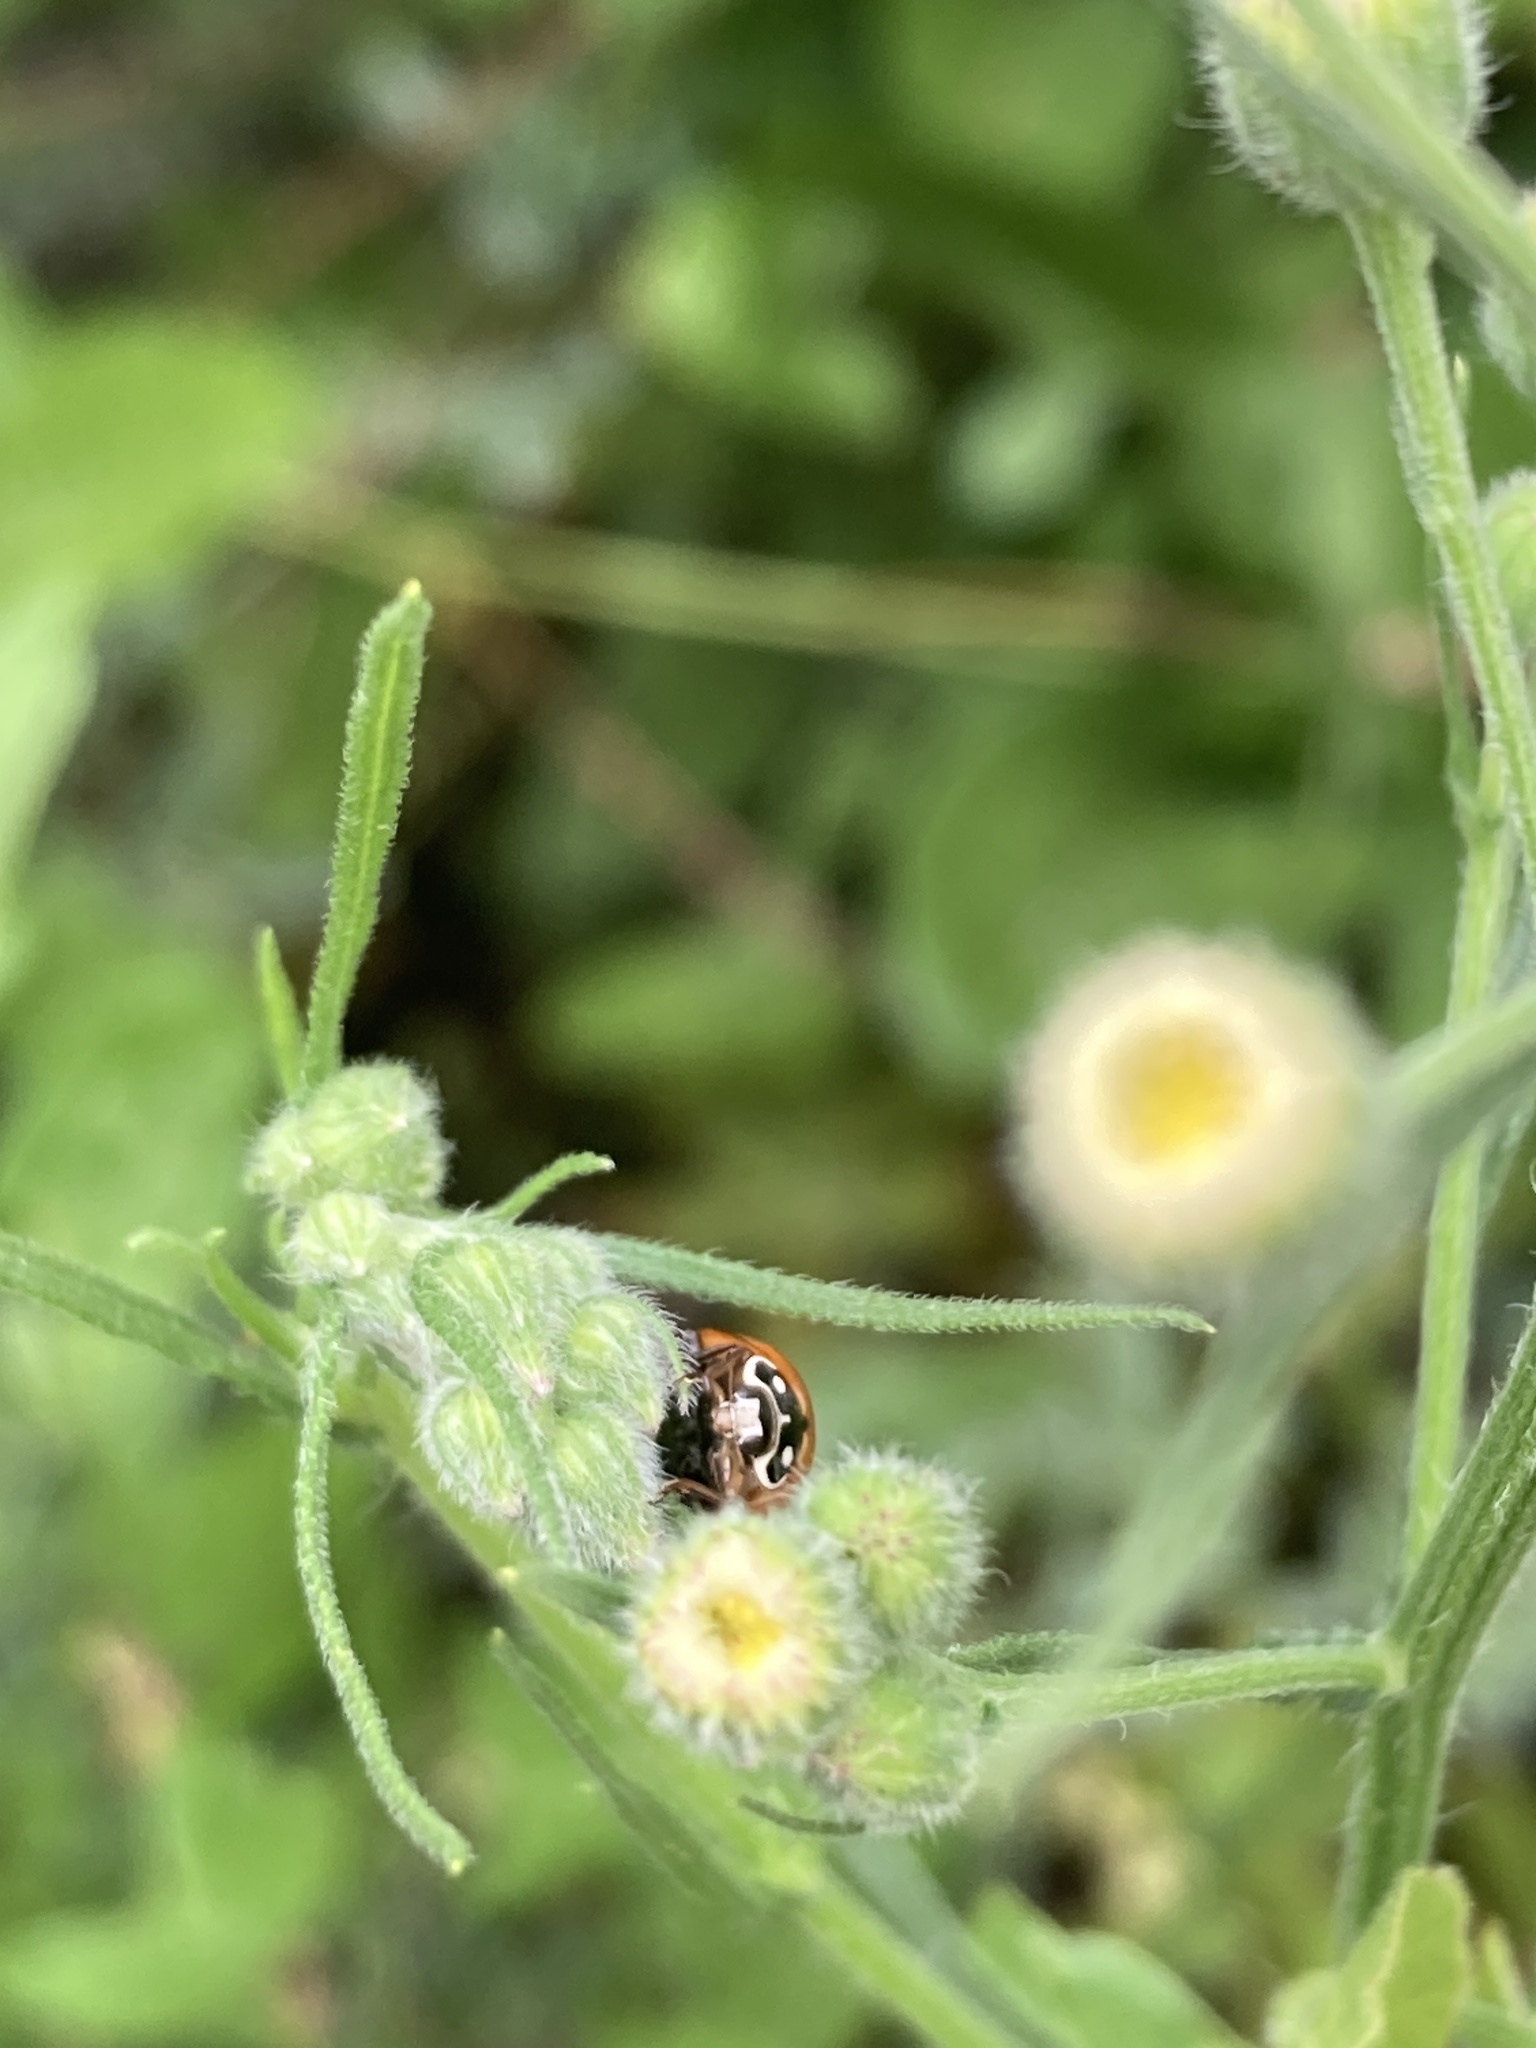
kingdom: Animalia
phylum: Arthropoda
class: Insecta
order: Coleoptera
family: Coccinellidae
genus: Cycloneda
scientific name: Cycloneda sanguinea
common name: Ladybird beetle
